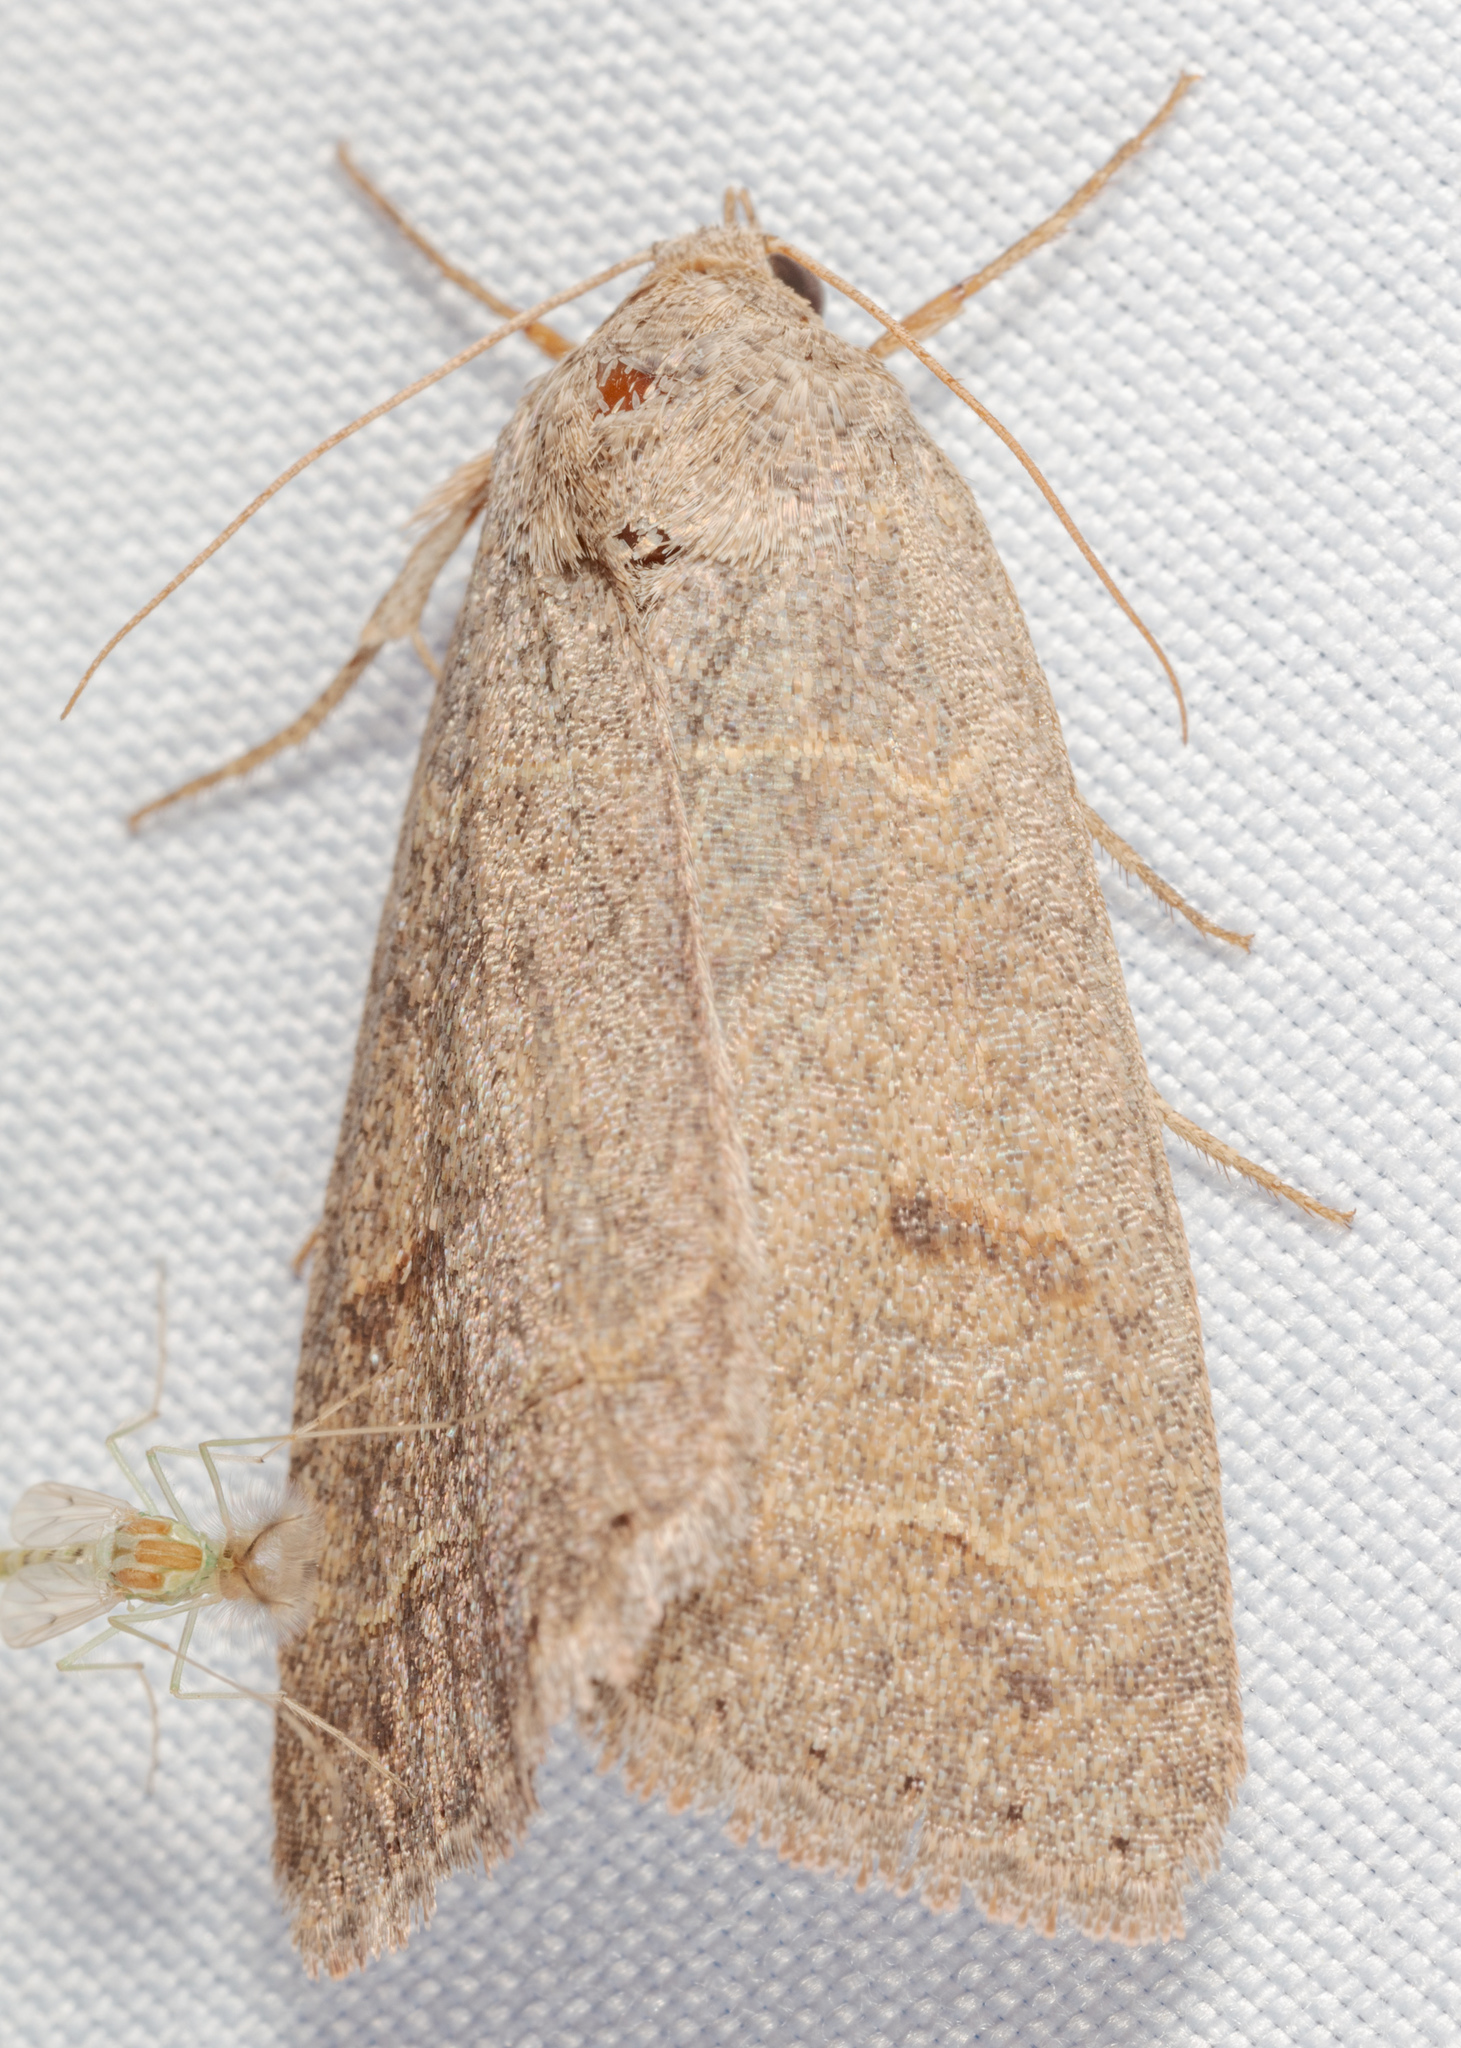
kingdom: Animalia
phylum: Arthropoda
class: Insecta
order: Lepidoptera
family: Erebidae
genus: Phoberia
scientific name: Phoberia atomaris
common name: Common oak moth
